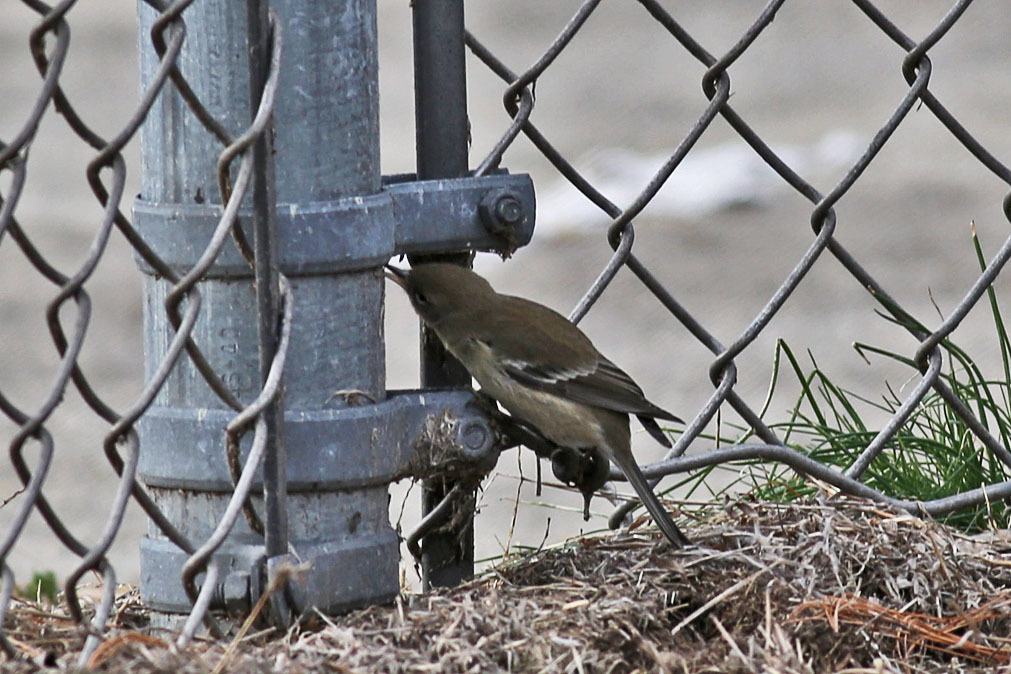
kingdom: Animalia
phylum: Chordata
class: Aves
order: Passeriformes
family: Parulidae
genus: Setophaga
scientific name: Setophaga pinus
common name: Pine warbler
